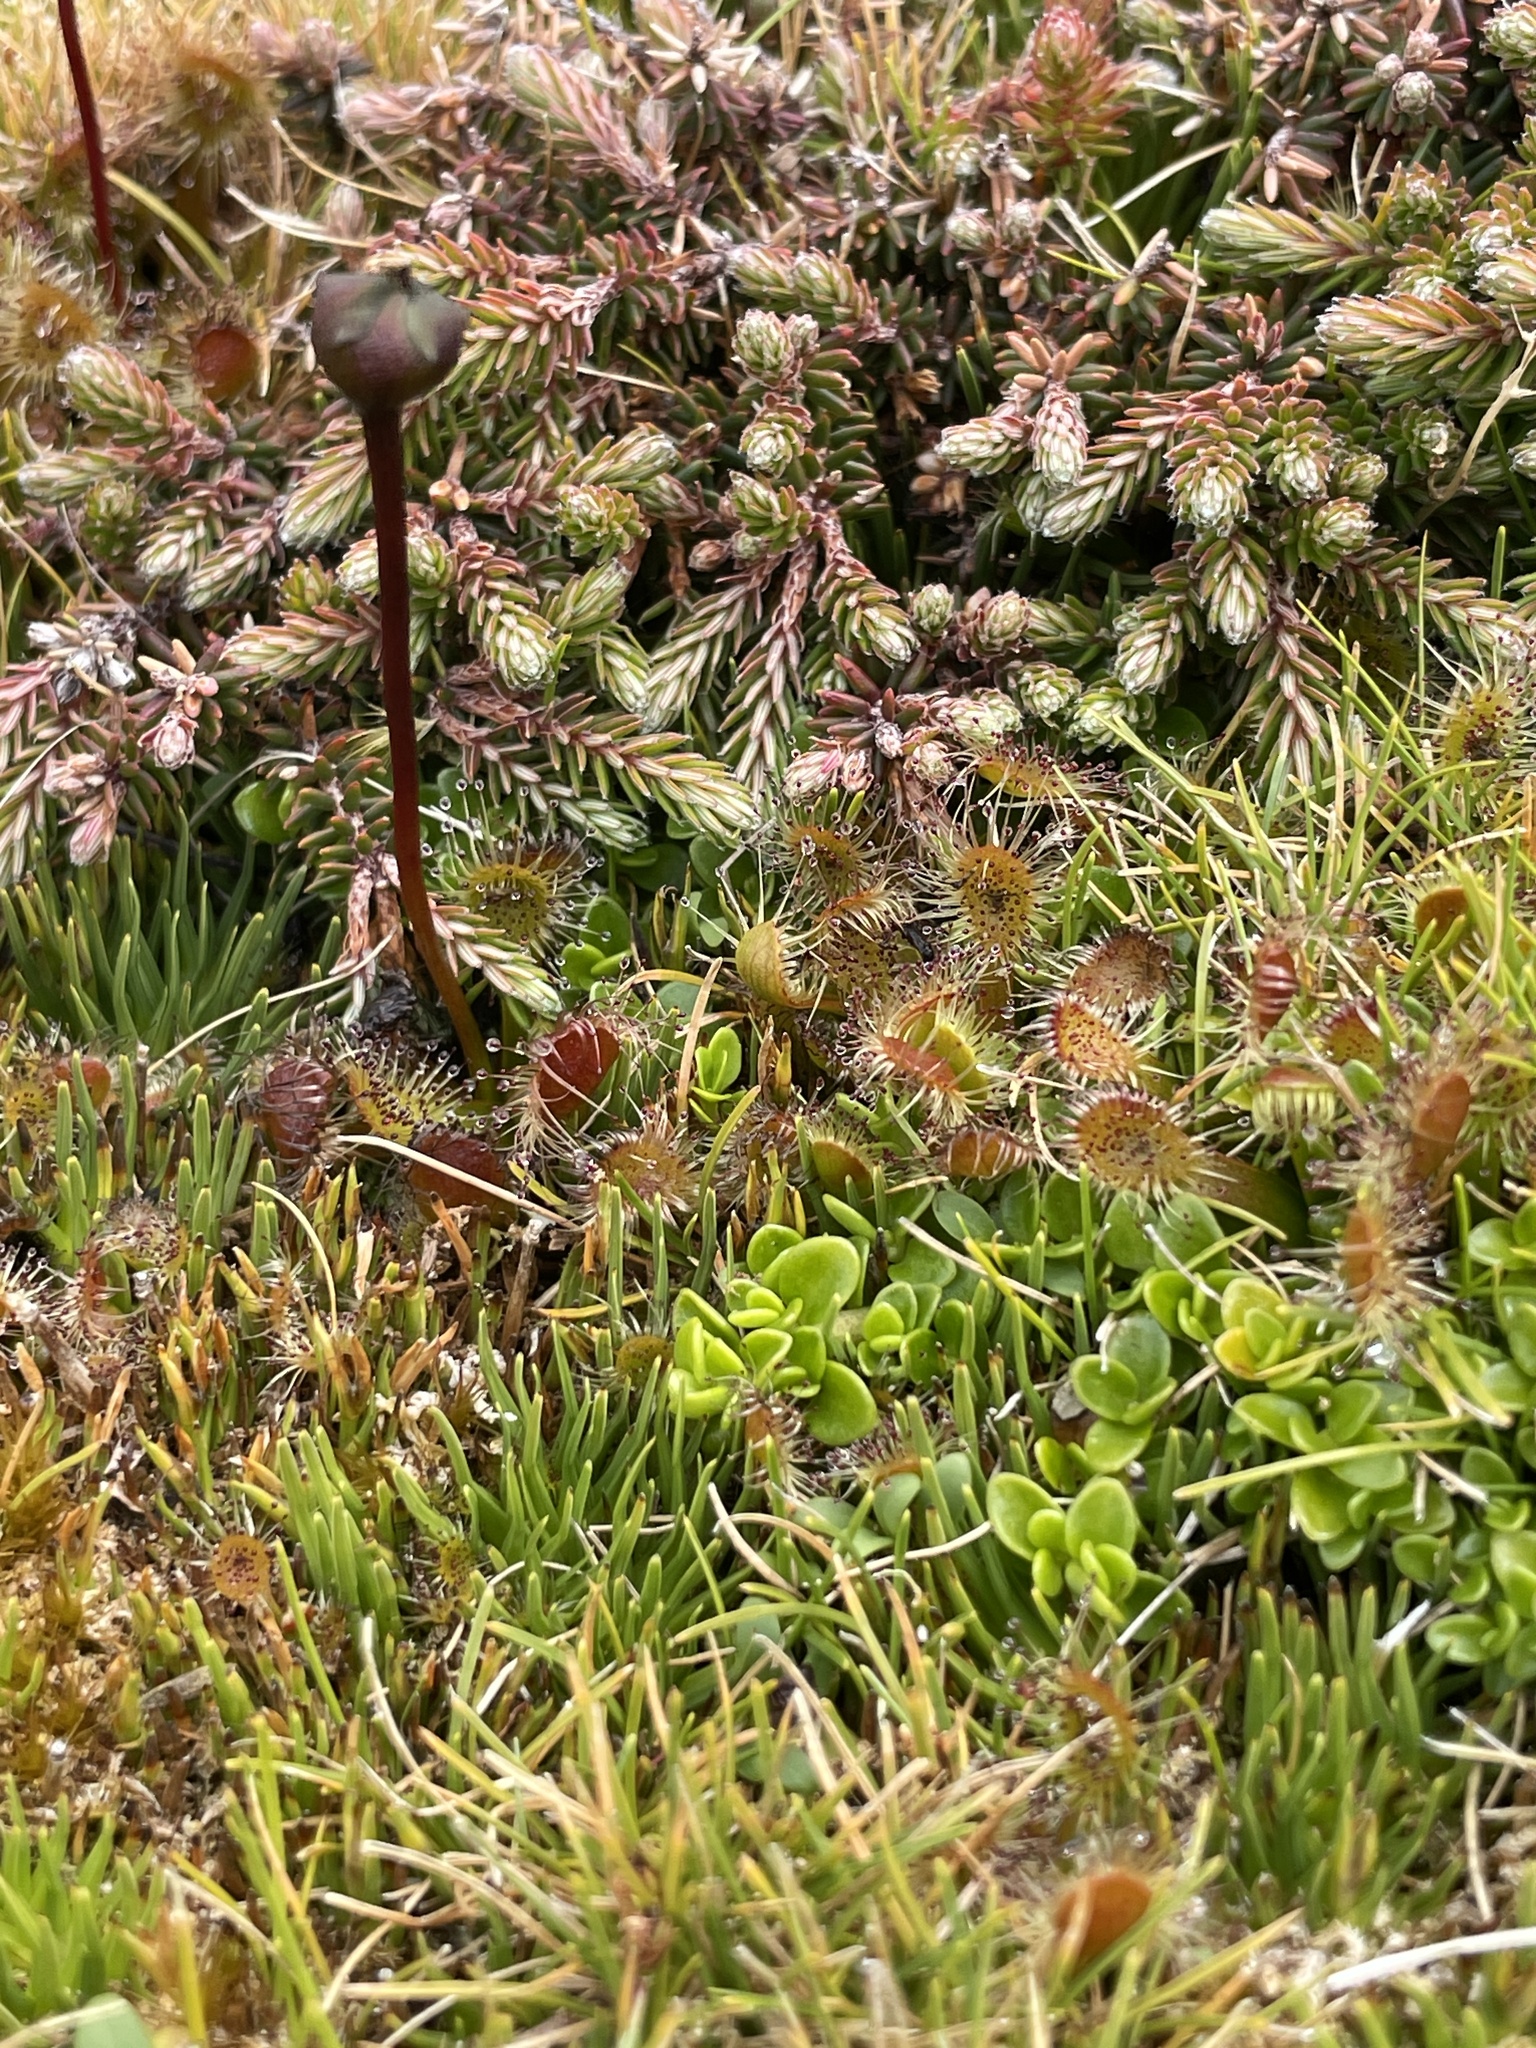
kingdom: Plantae
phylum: Tracheophyta
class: Magnoliopsida
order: Caryophyllales
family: Droseraceae
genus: Drosera
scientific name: Drosera stenopetala
